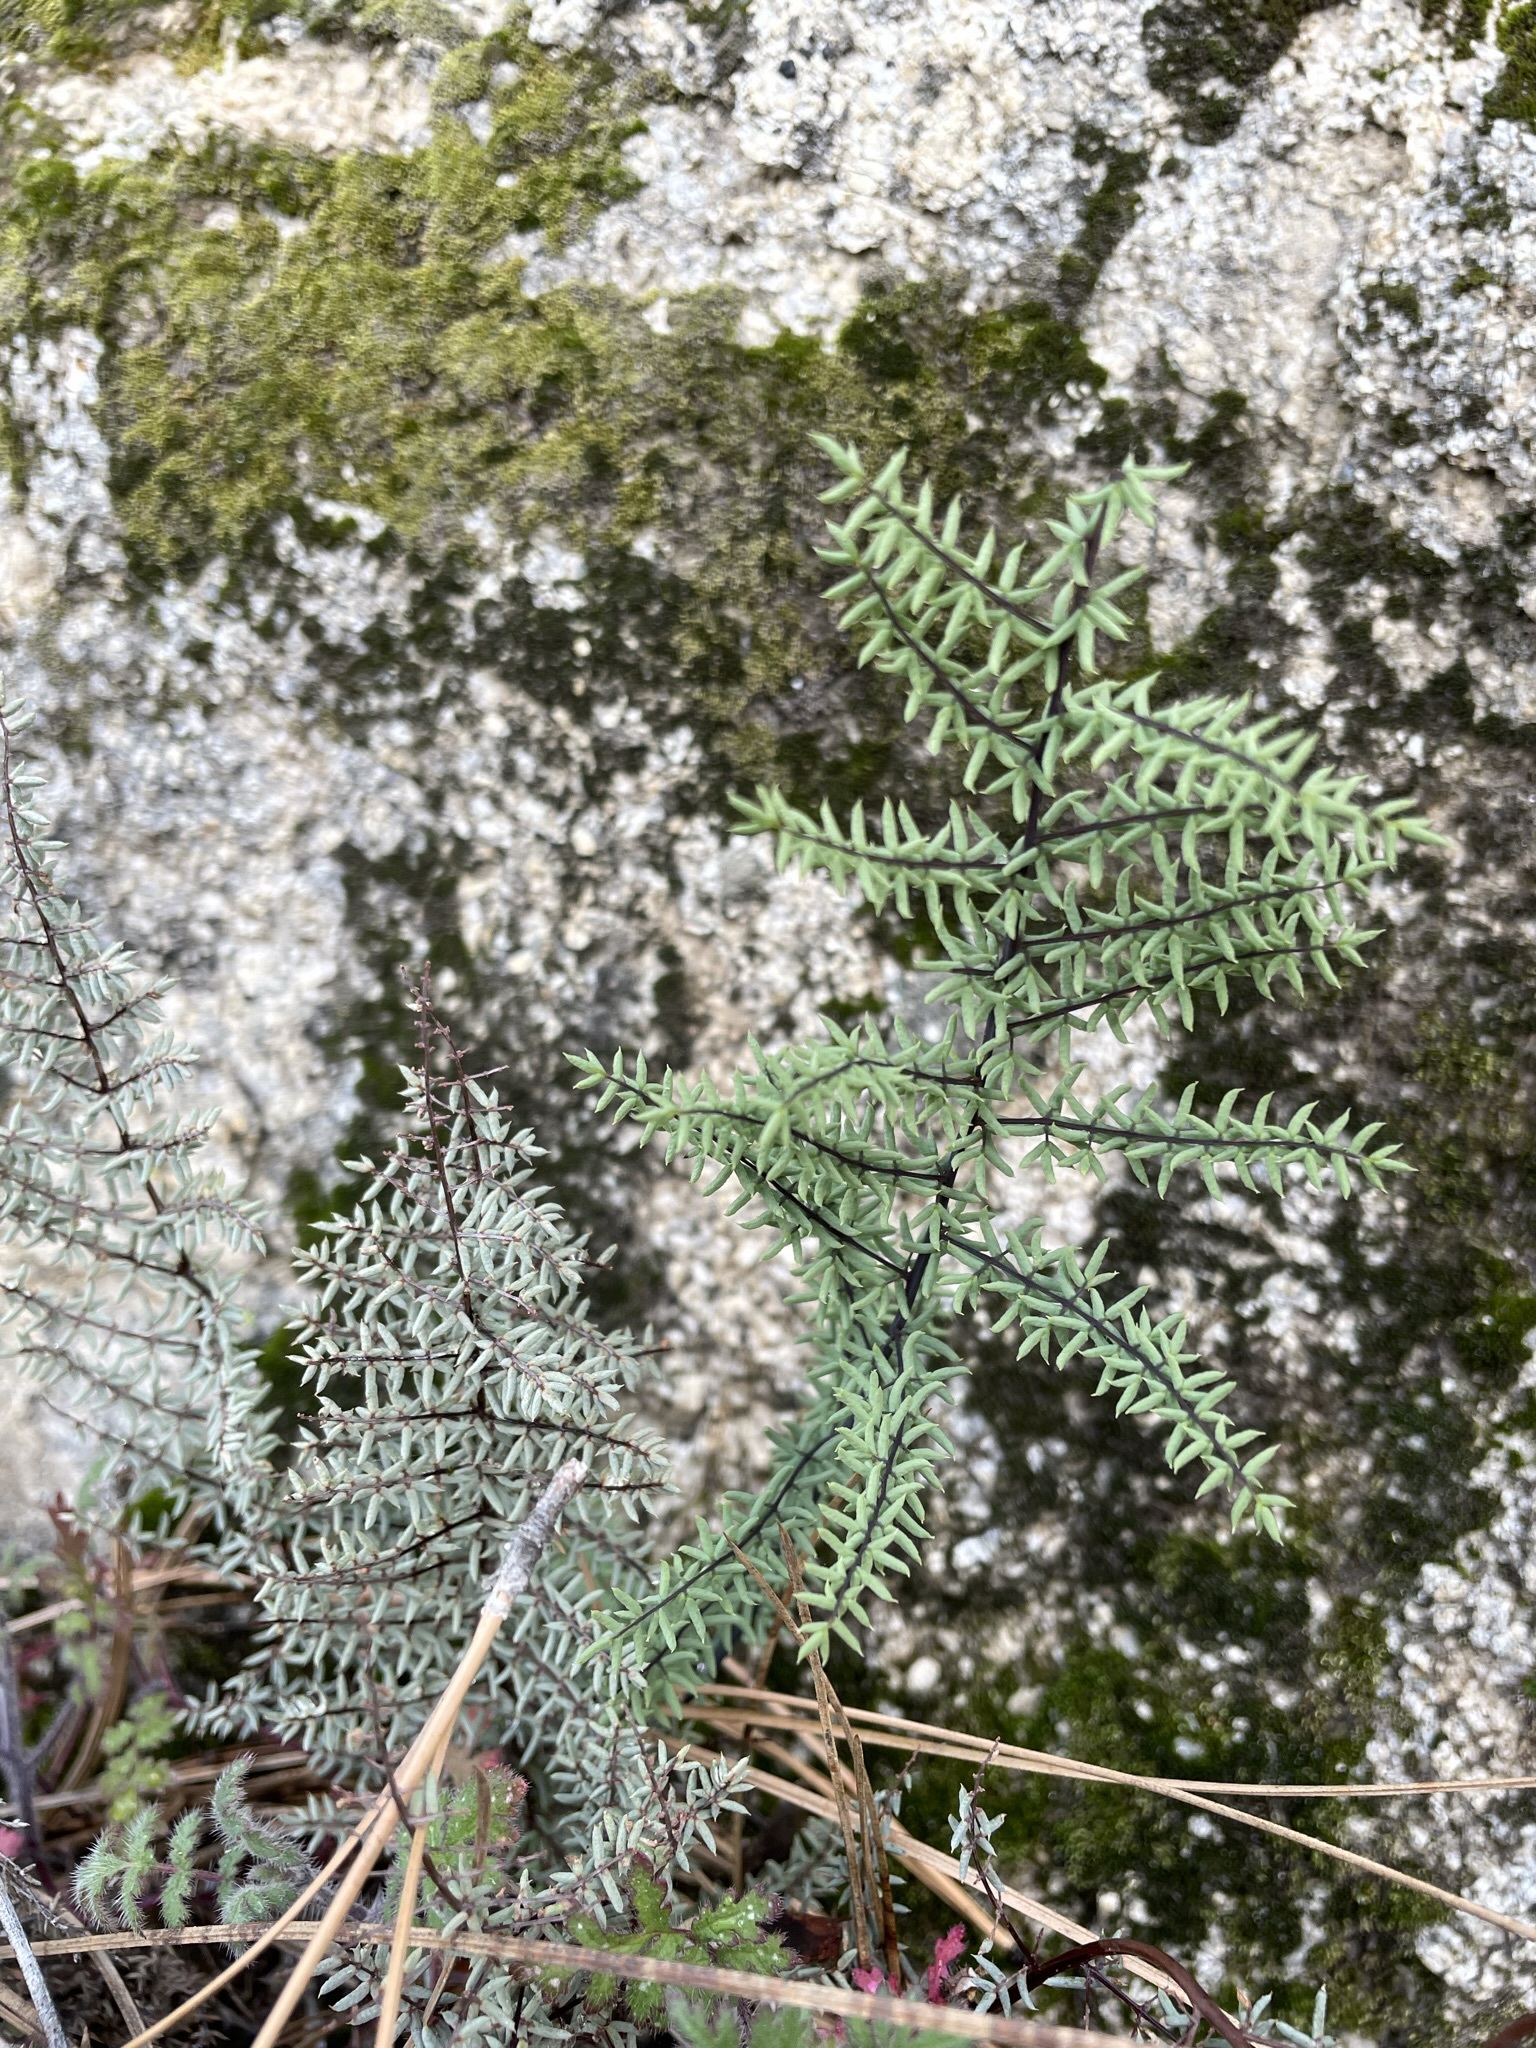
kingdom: Plantae
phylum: Tracheophyta
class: Polypodiopsida
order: Polypodiales
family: Pteridaceae
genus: Pellaea
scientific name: Pellaea mucronata
